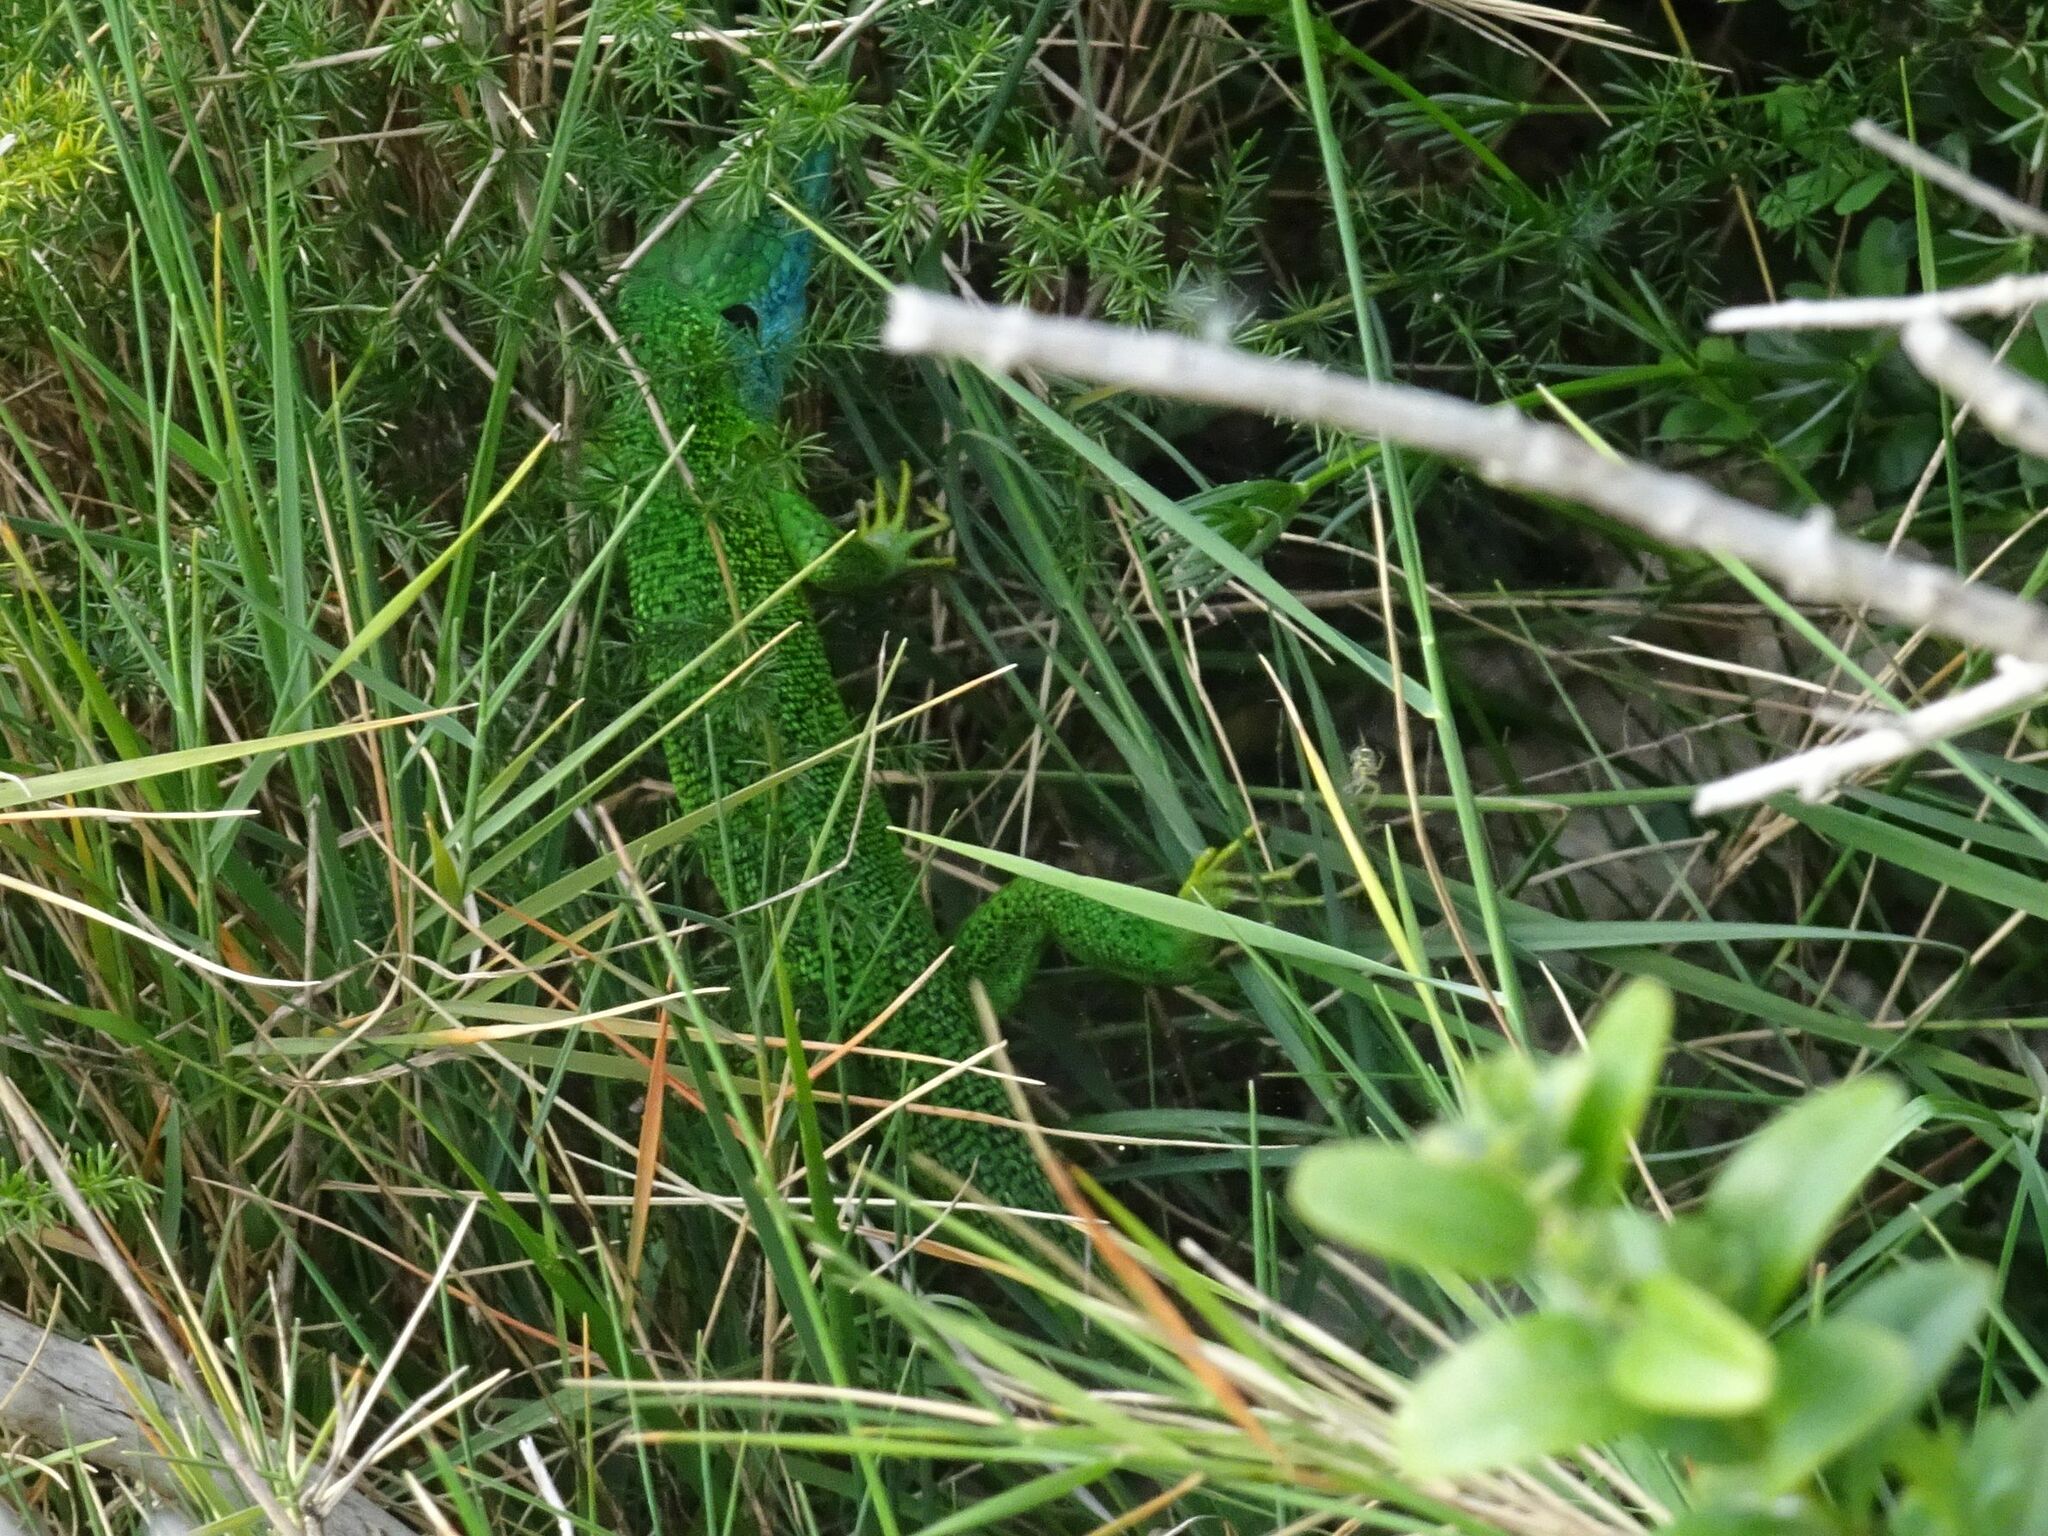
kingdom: Animalia
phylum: Chordata
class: Squamata
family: Lacertidae
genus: Lacerta
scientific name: Lacerta bilineata
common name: Western green lizard
